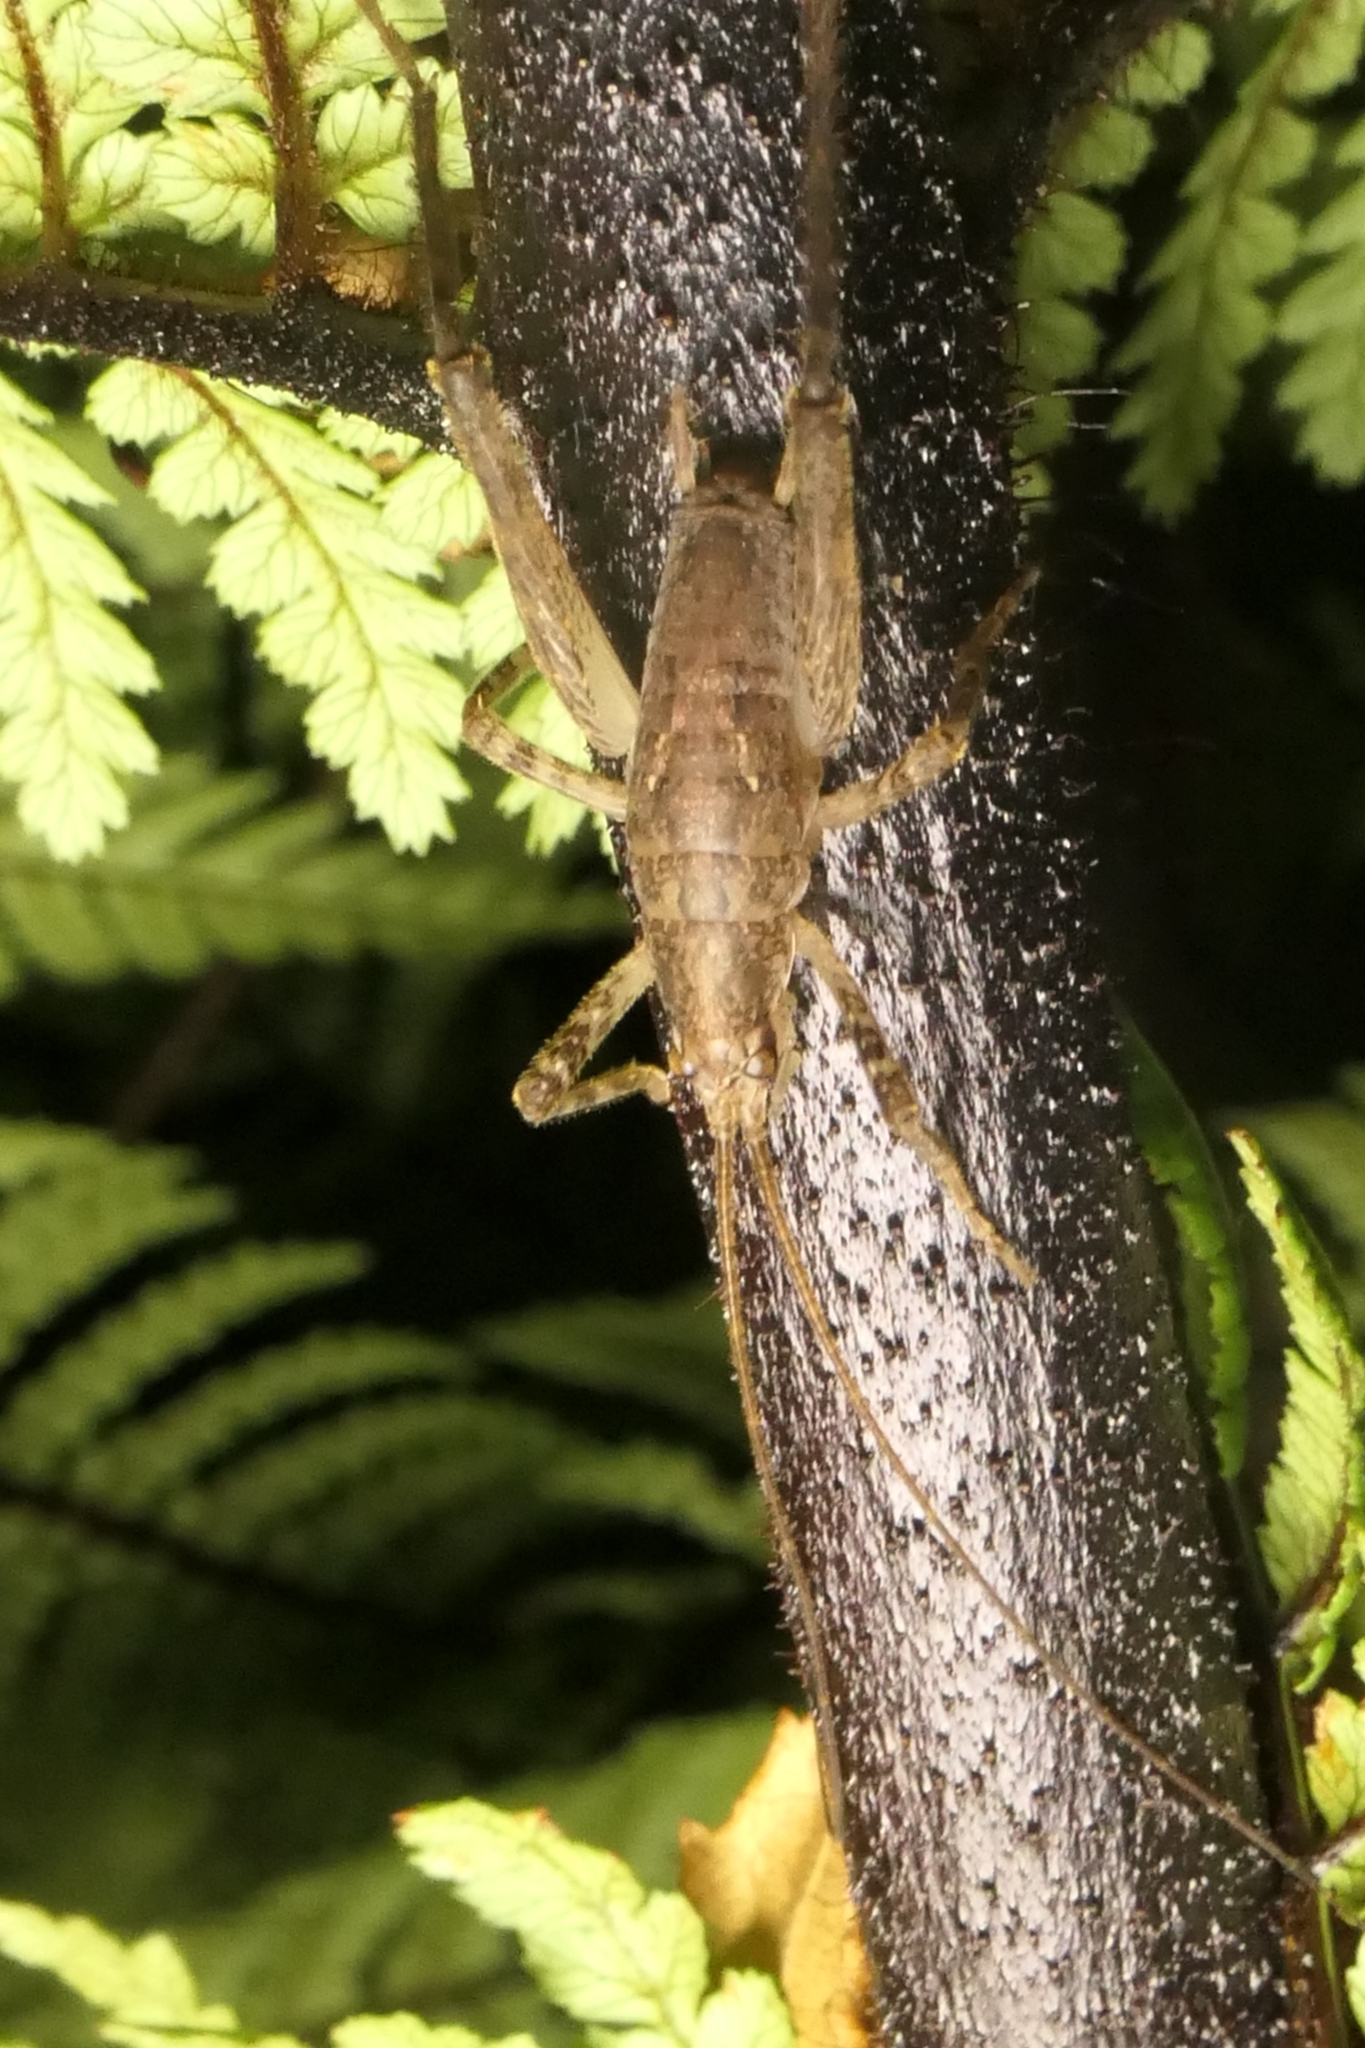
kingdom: Animalia
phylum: Arthropoda
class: Insecta
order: Orthoptera
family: Rhaphidophoridae
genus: Isoplectron
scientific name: Isoplectron armatum
